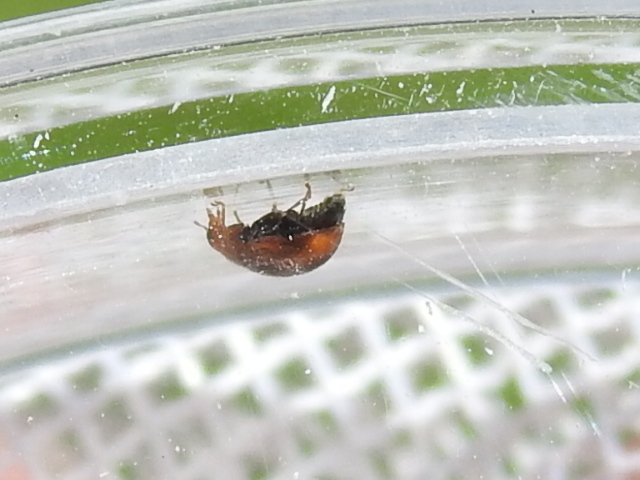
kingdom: Animalia
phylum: Arthropoda
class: Insecta
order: Coleoptera
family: Coccinellidae
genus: Scymnus
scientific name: Scymnus loewii
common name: Dusky lady beetle
